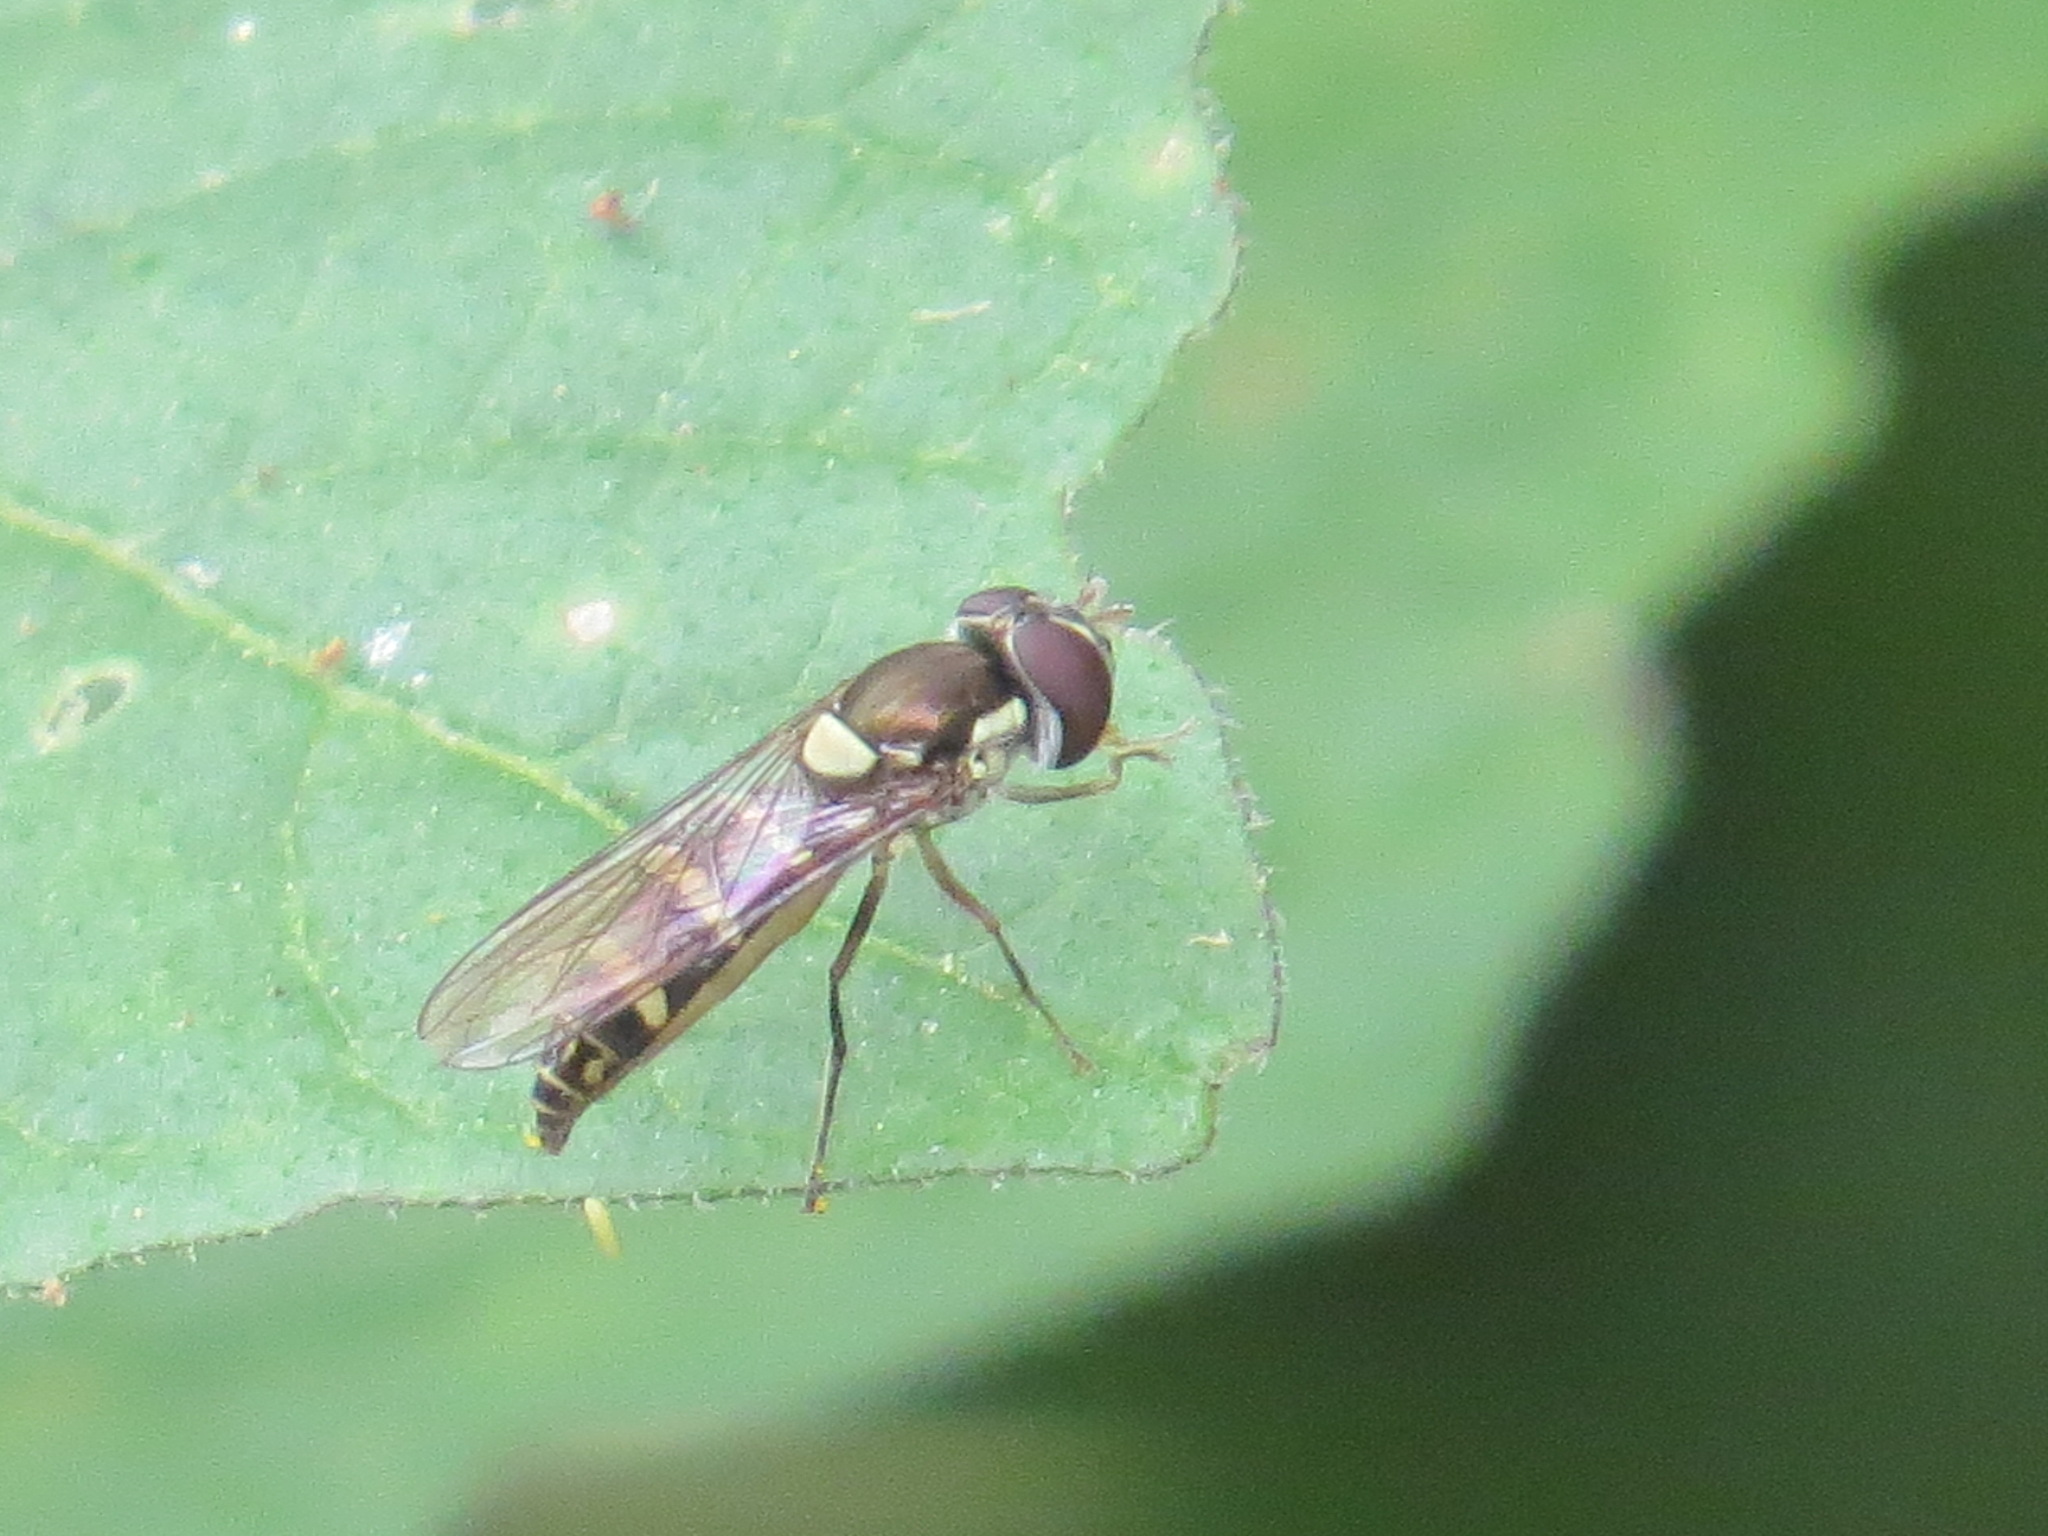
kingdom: Animalia
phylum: Arthropoda
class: Insecta
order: Diptera
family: Syrphidae
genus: Fazia
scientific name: Fazia micrura
